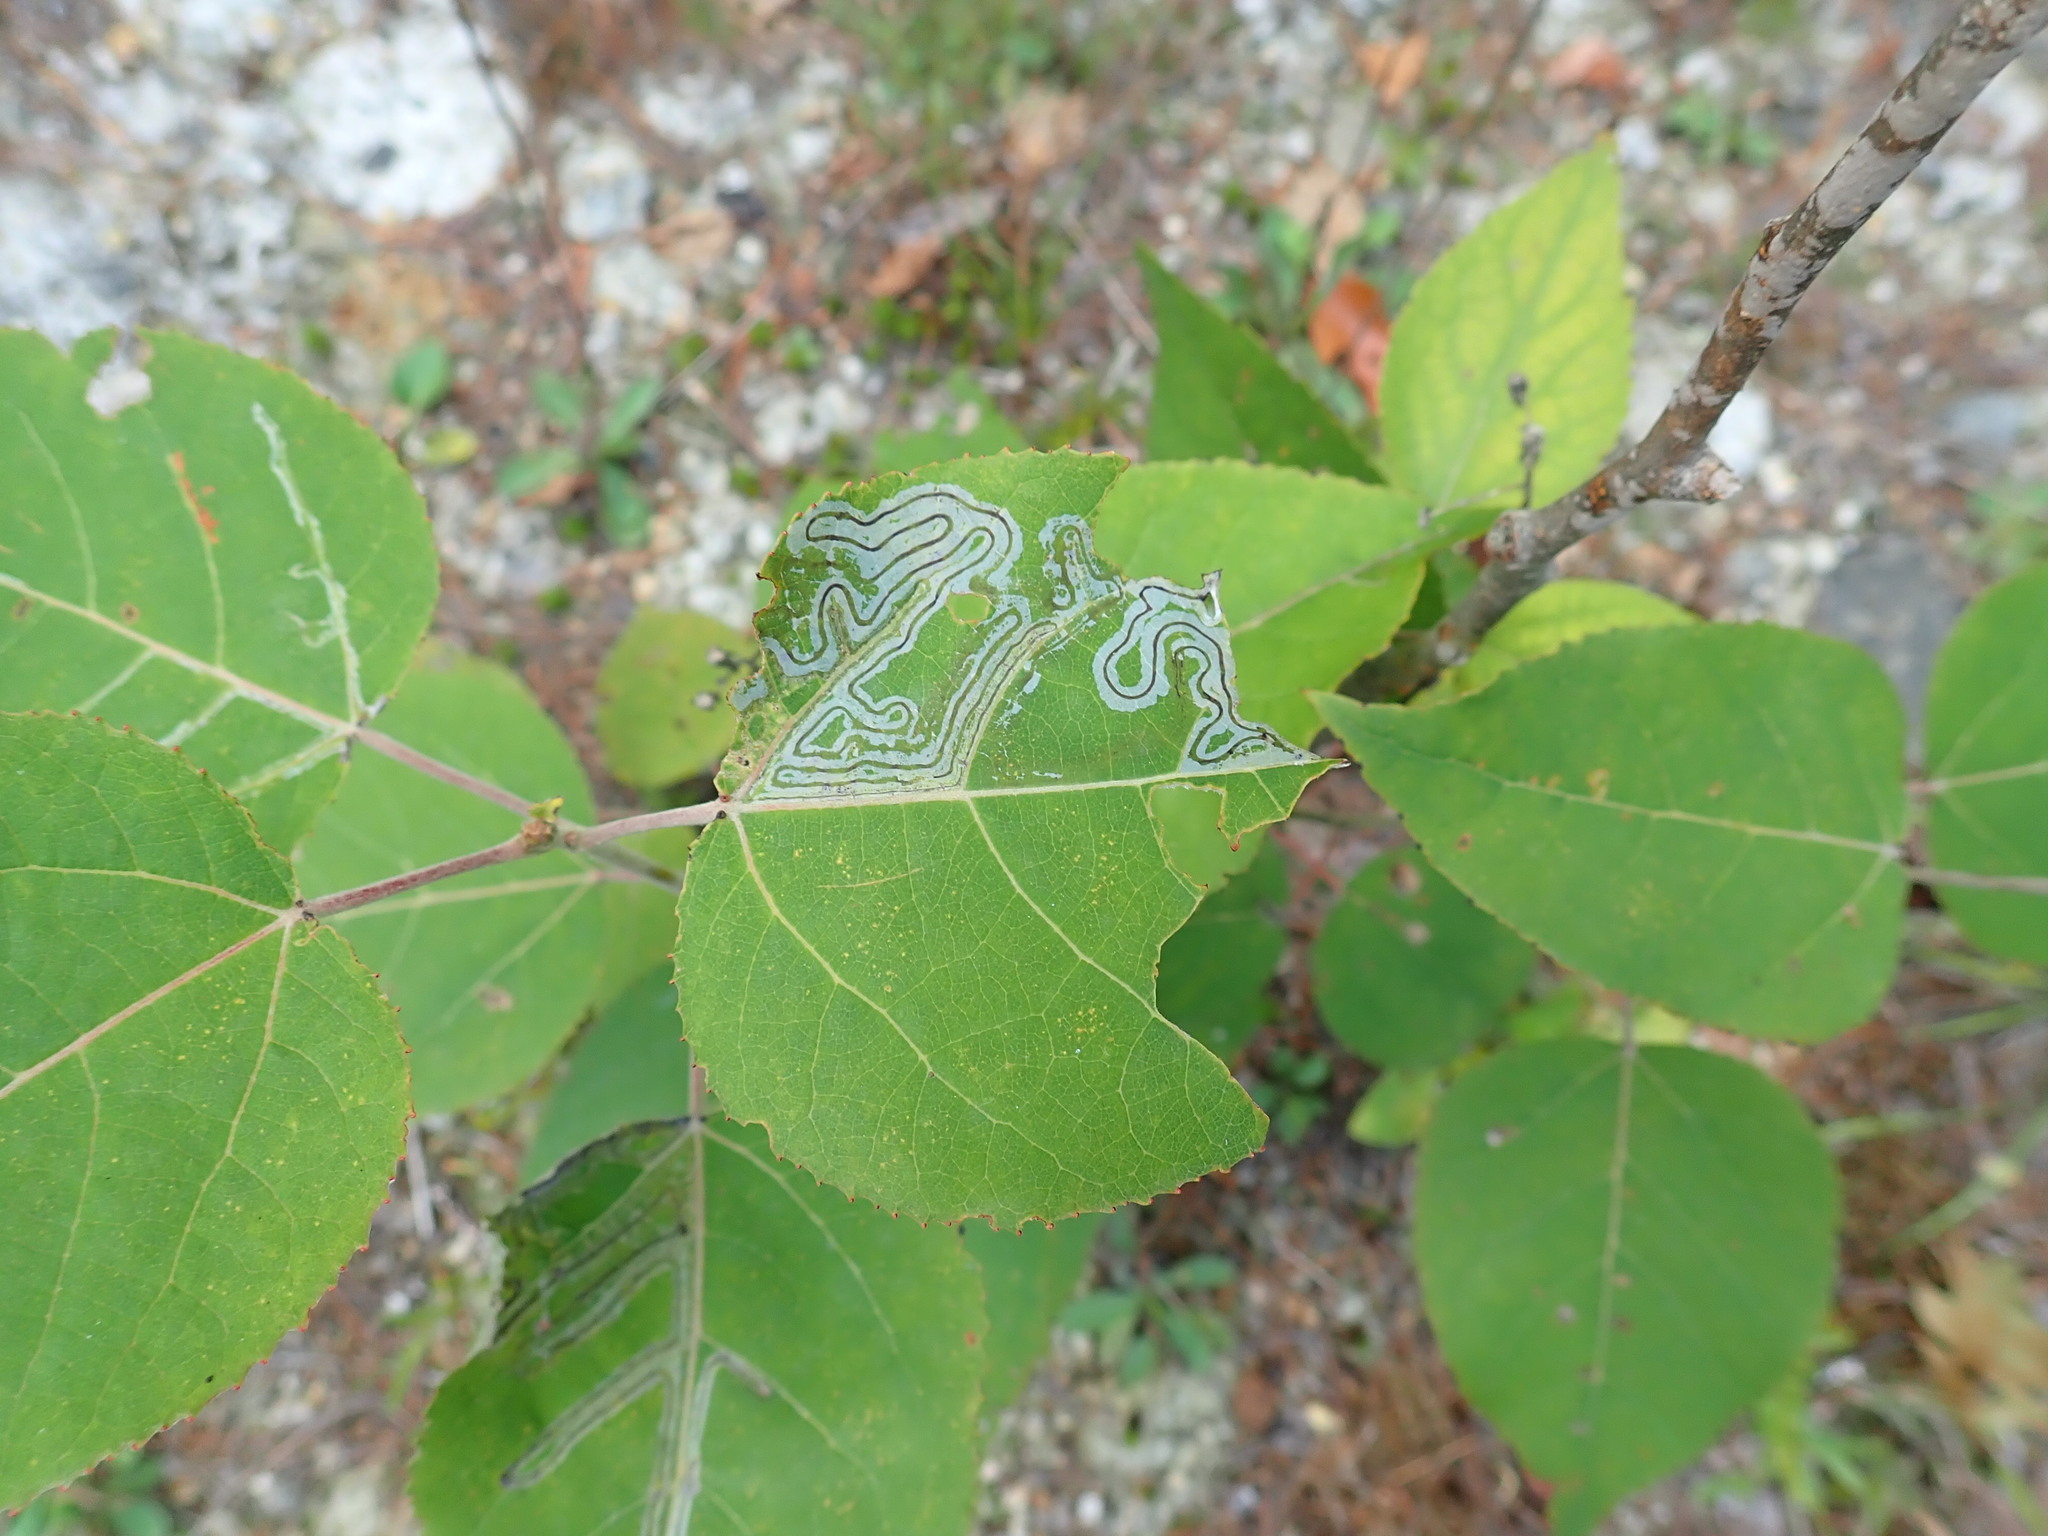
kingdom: Animalia
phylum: Arthropoda
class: Insecta
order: Lepidoptera
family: Gracillariidae
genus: Phyllocnistis
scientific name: Phyllocnistis populiella
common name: Aspen serpentine leafminer moth
